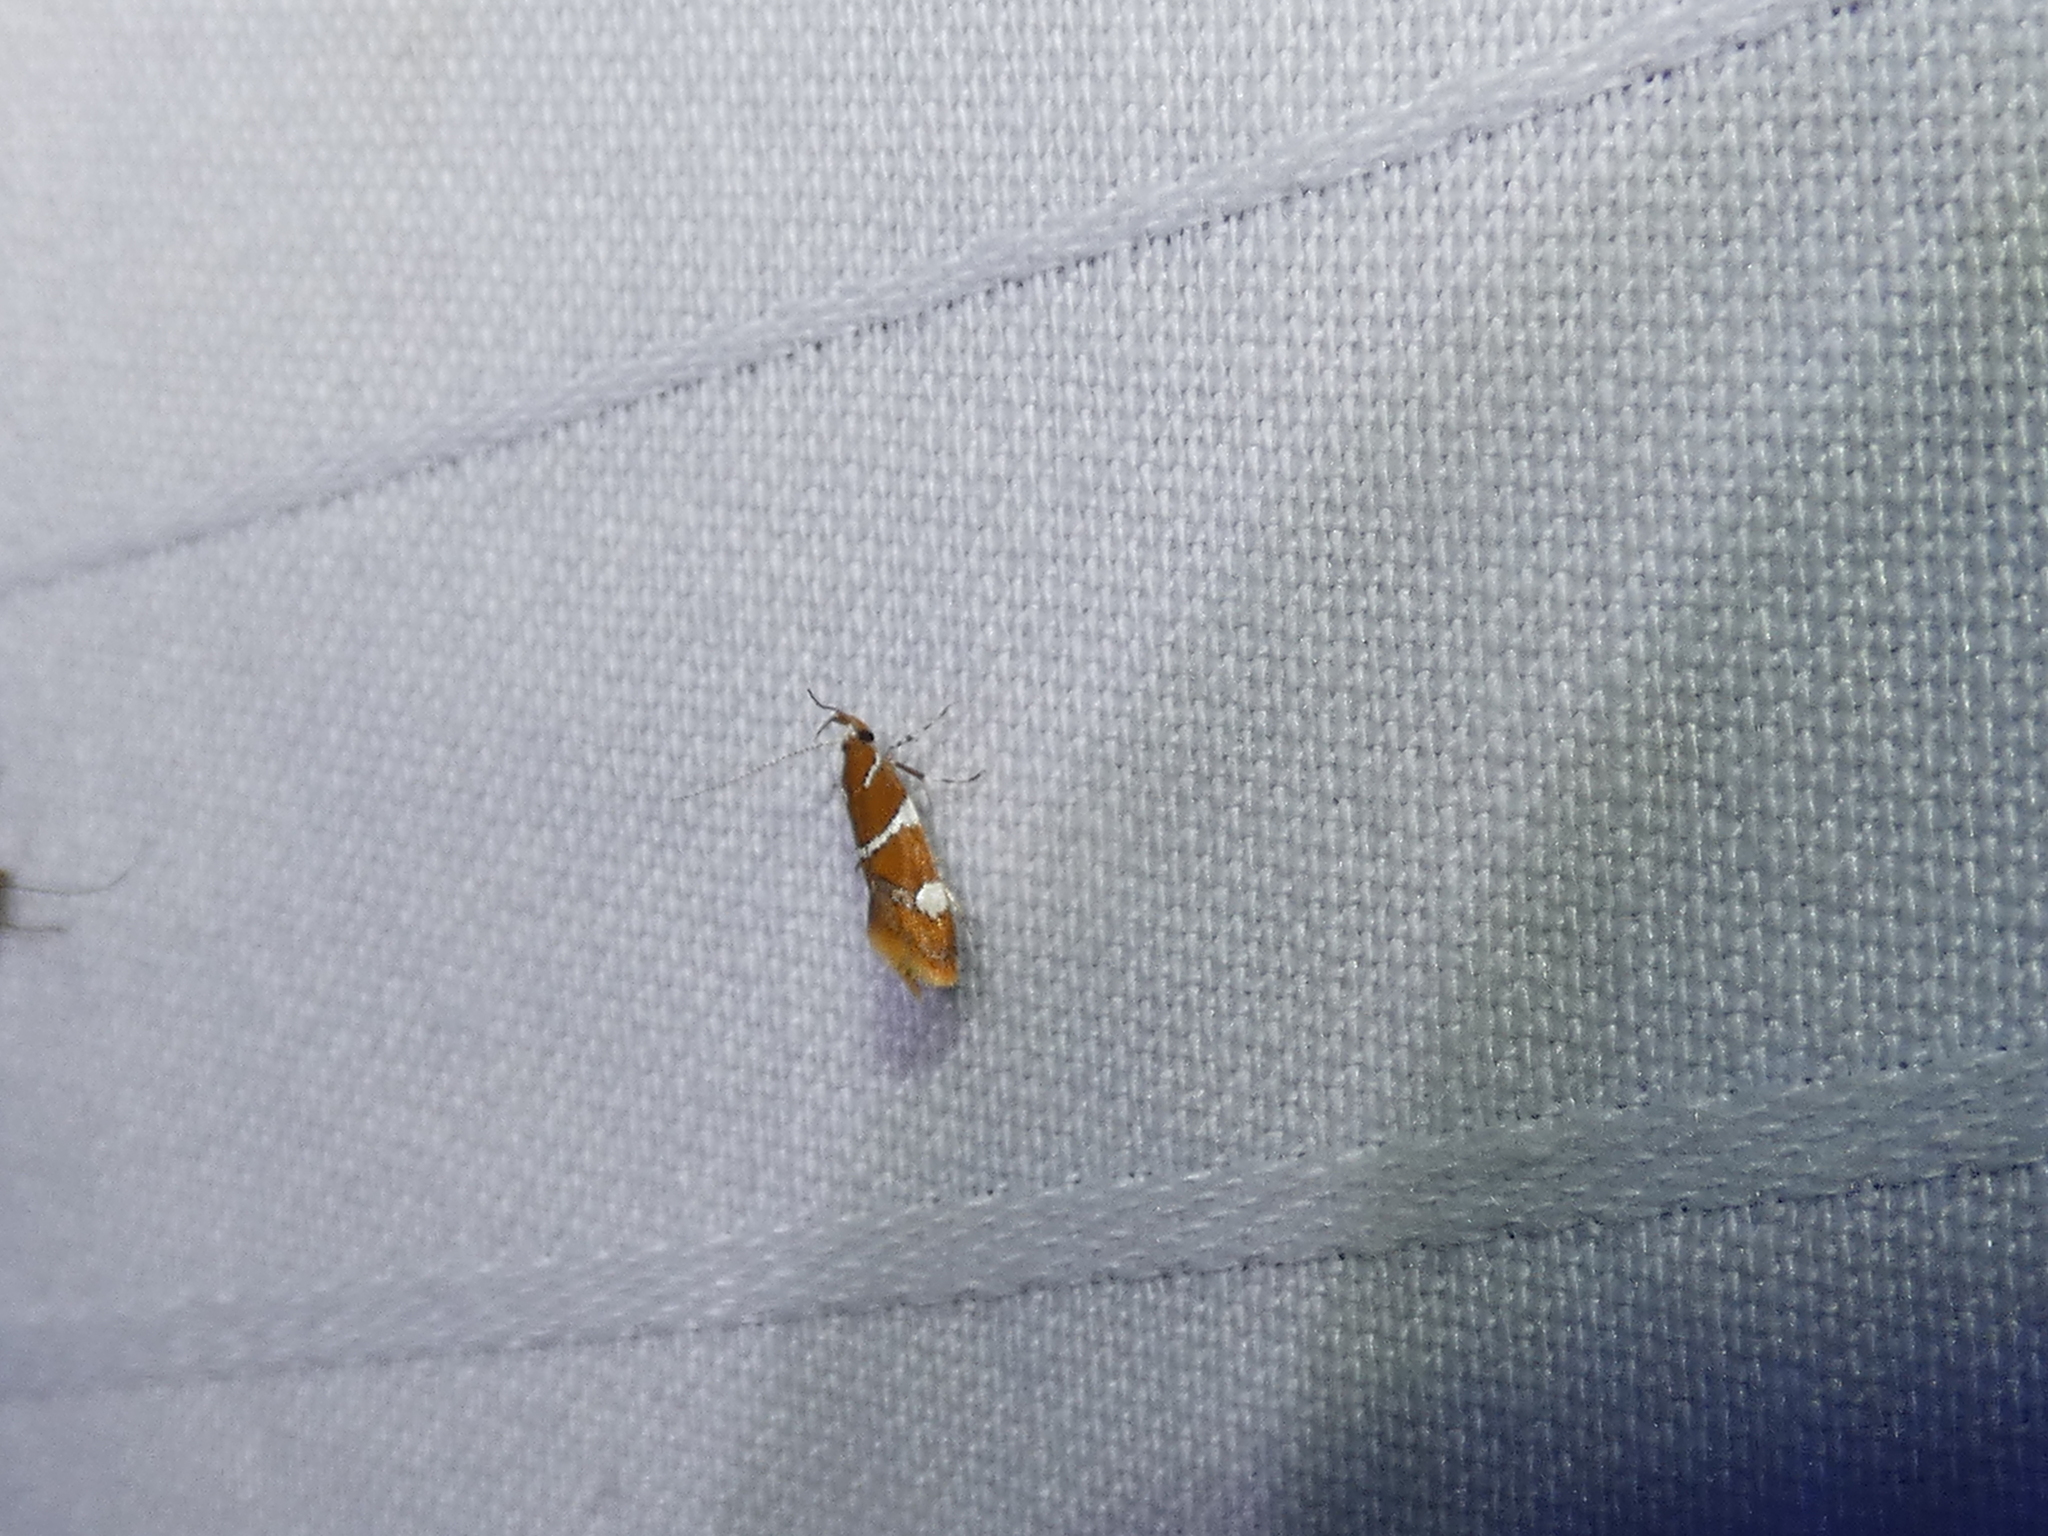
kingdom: Animalia
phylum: Arthropoda
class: Insecta
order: Lepidoptera
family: Oecophoridae
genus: Promalactis
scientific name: Promalactis suzukiella
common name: Moth
